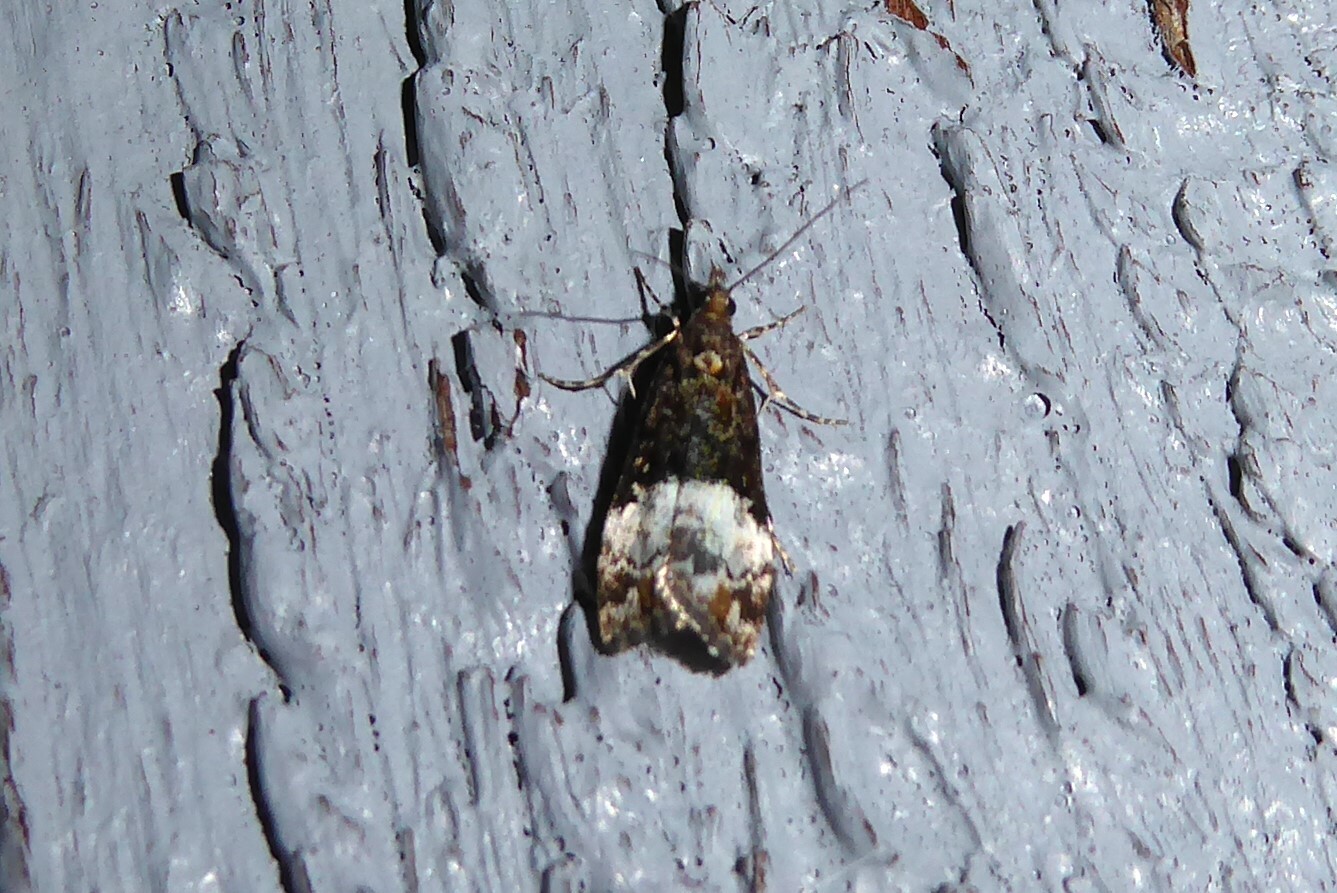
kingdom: Animalia
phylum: Arthropoda
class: Insecta
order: Lepidoptera
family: Crambidae
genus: Scoparia
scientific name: Scoparia minusculalis
